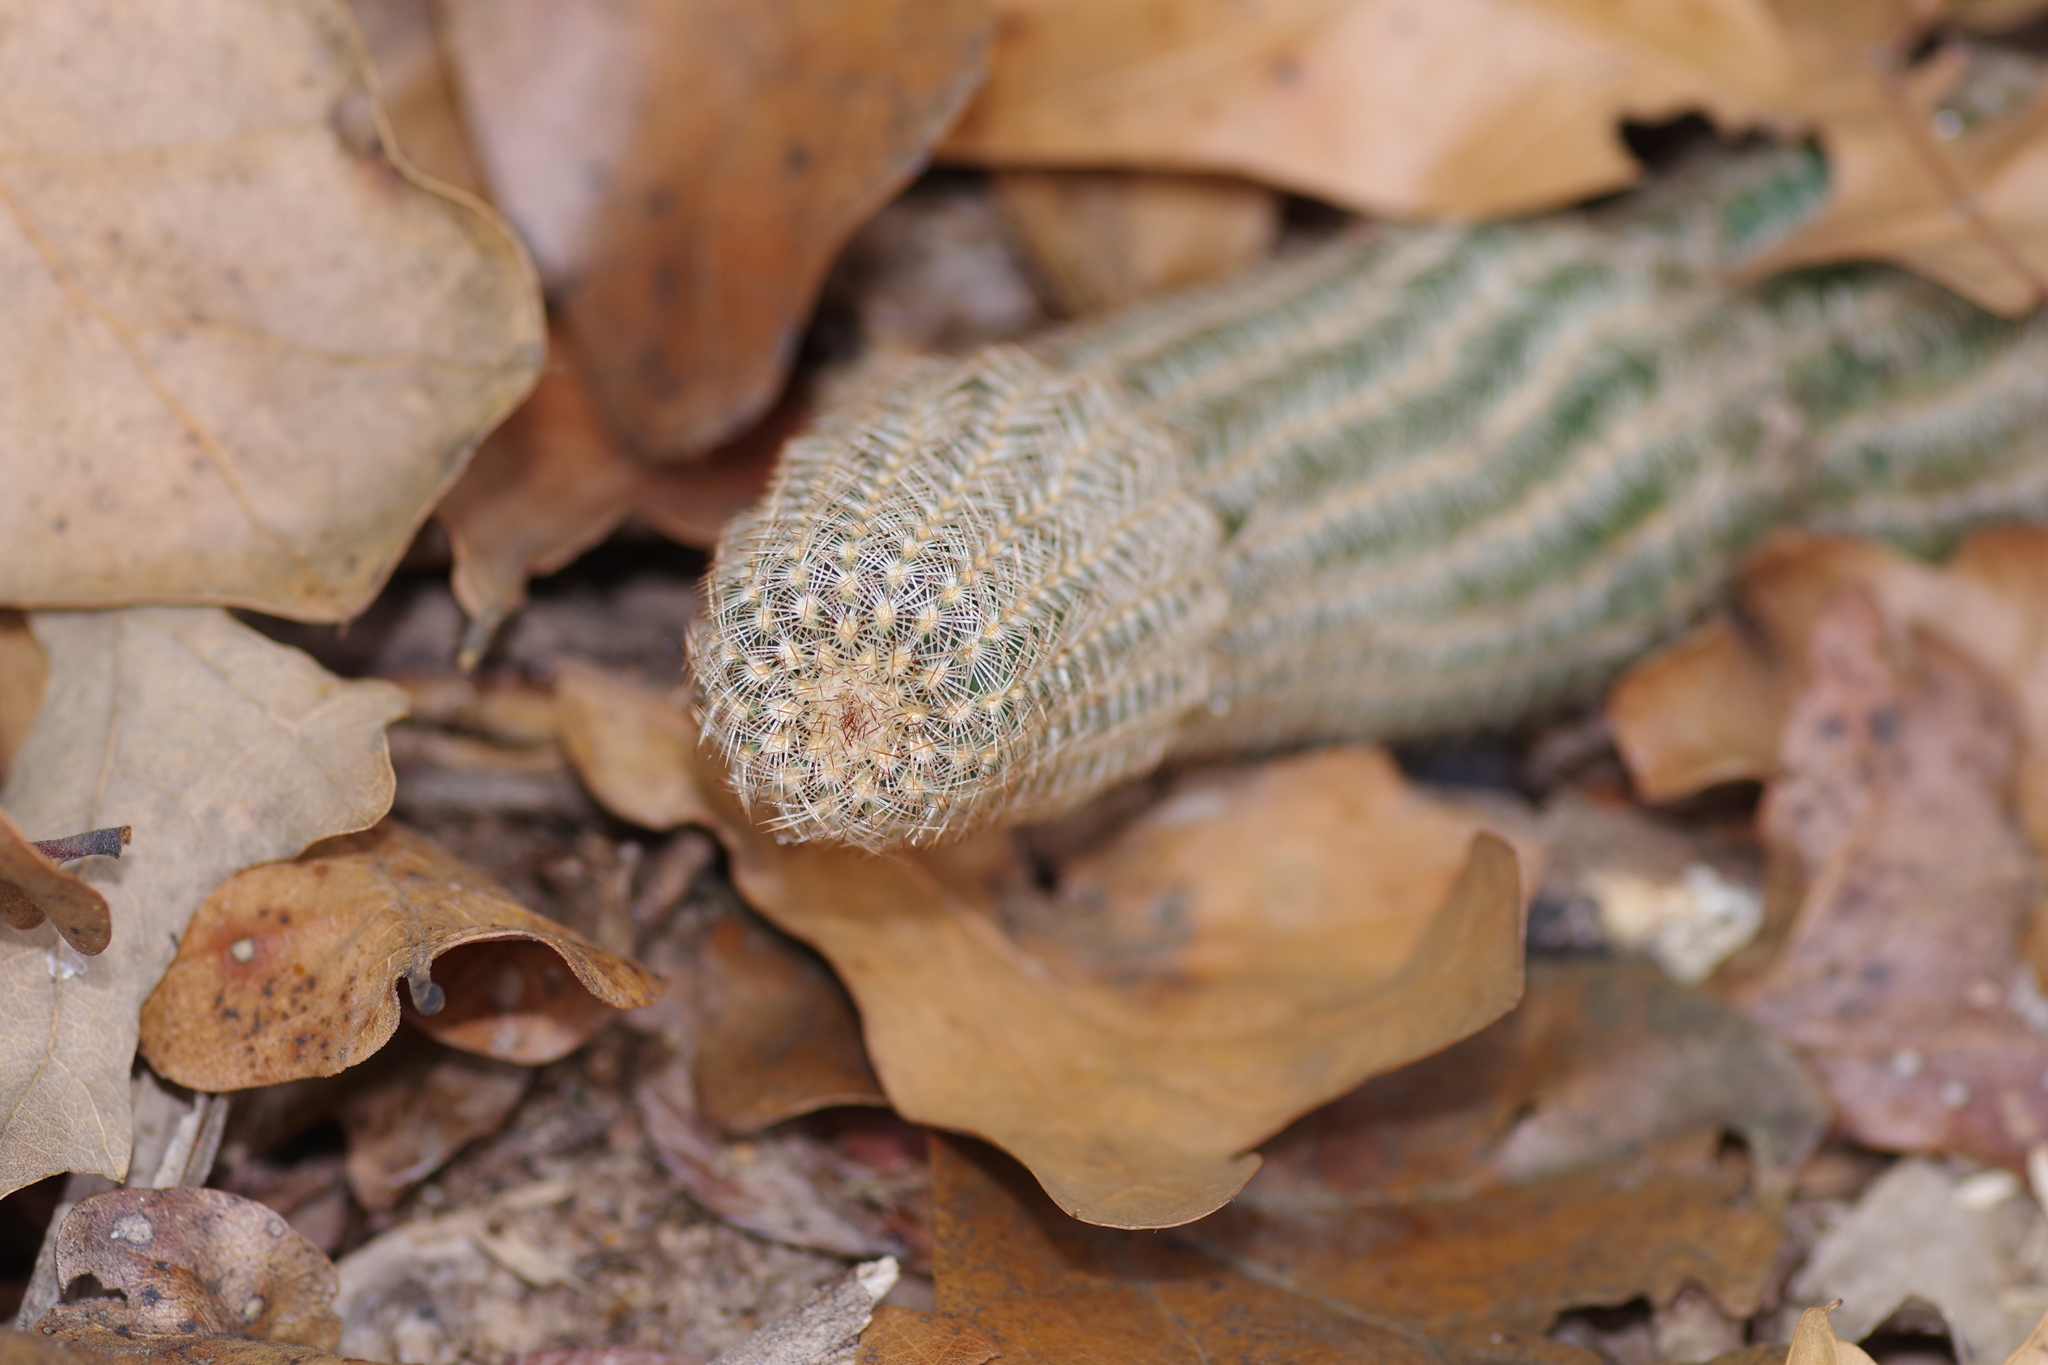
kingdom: Plantae
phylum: Tracheophyta
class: Magnoliopsida
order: Caryophyllales
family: Cactaceae
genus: Echinocereus
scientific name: Echinocereus reichenbachii
